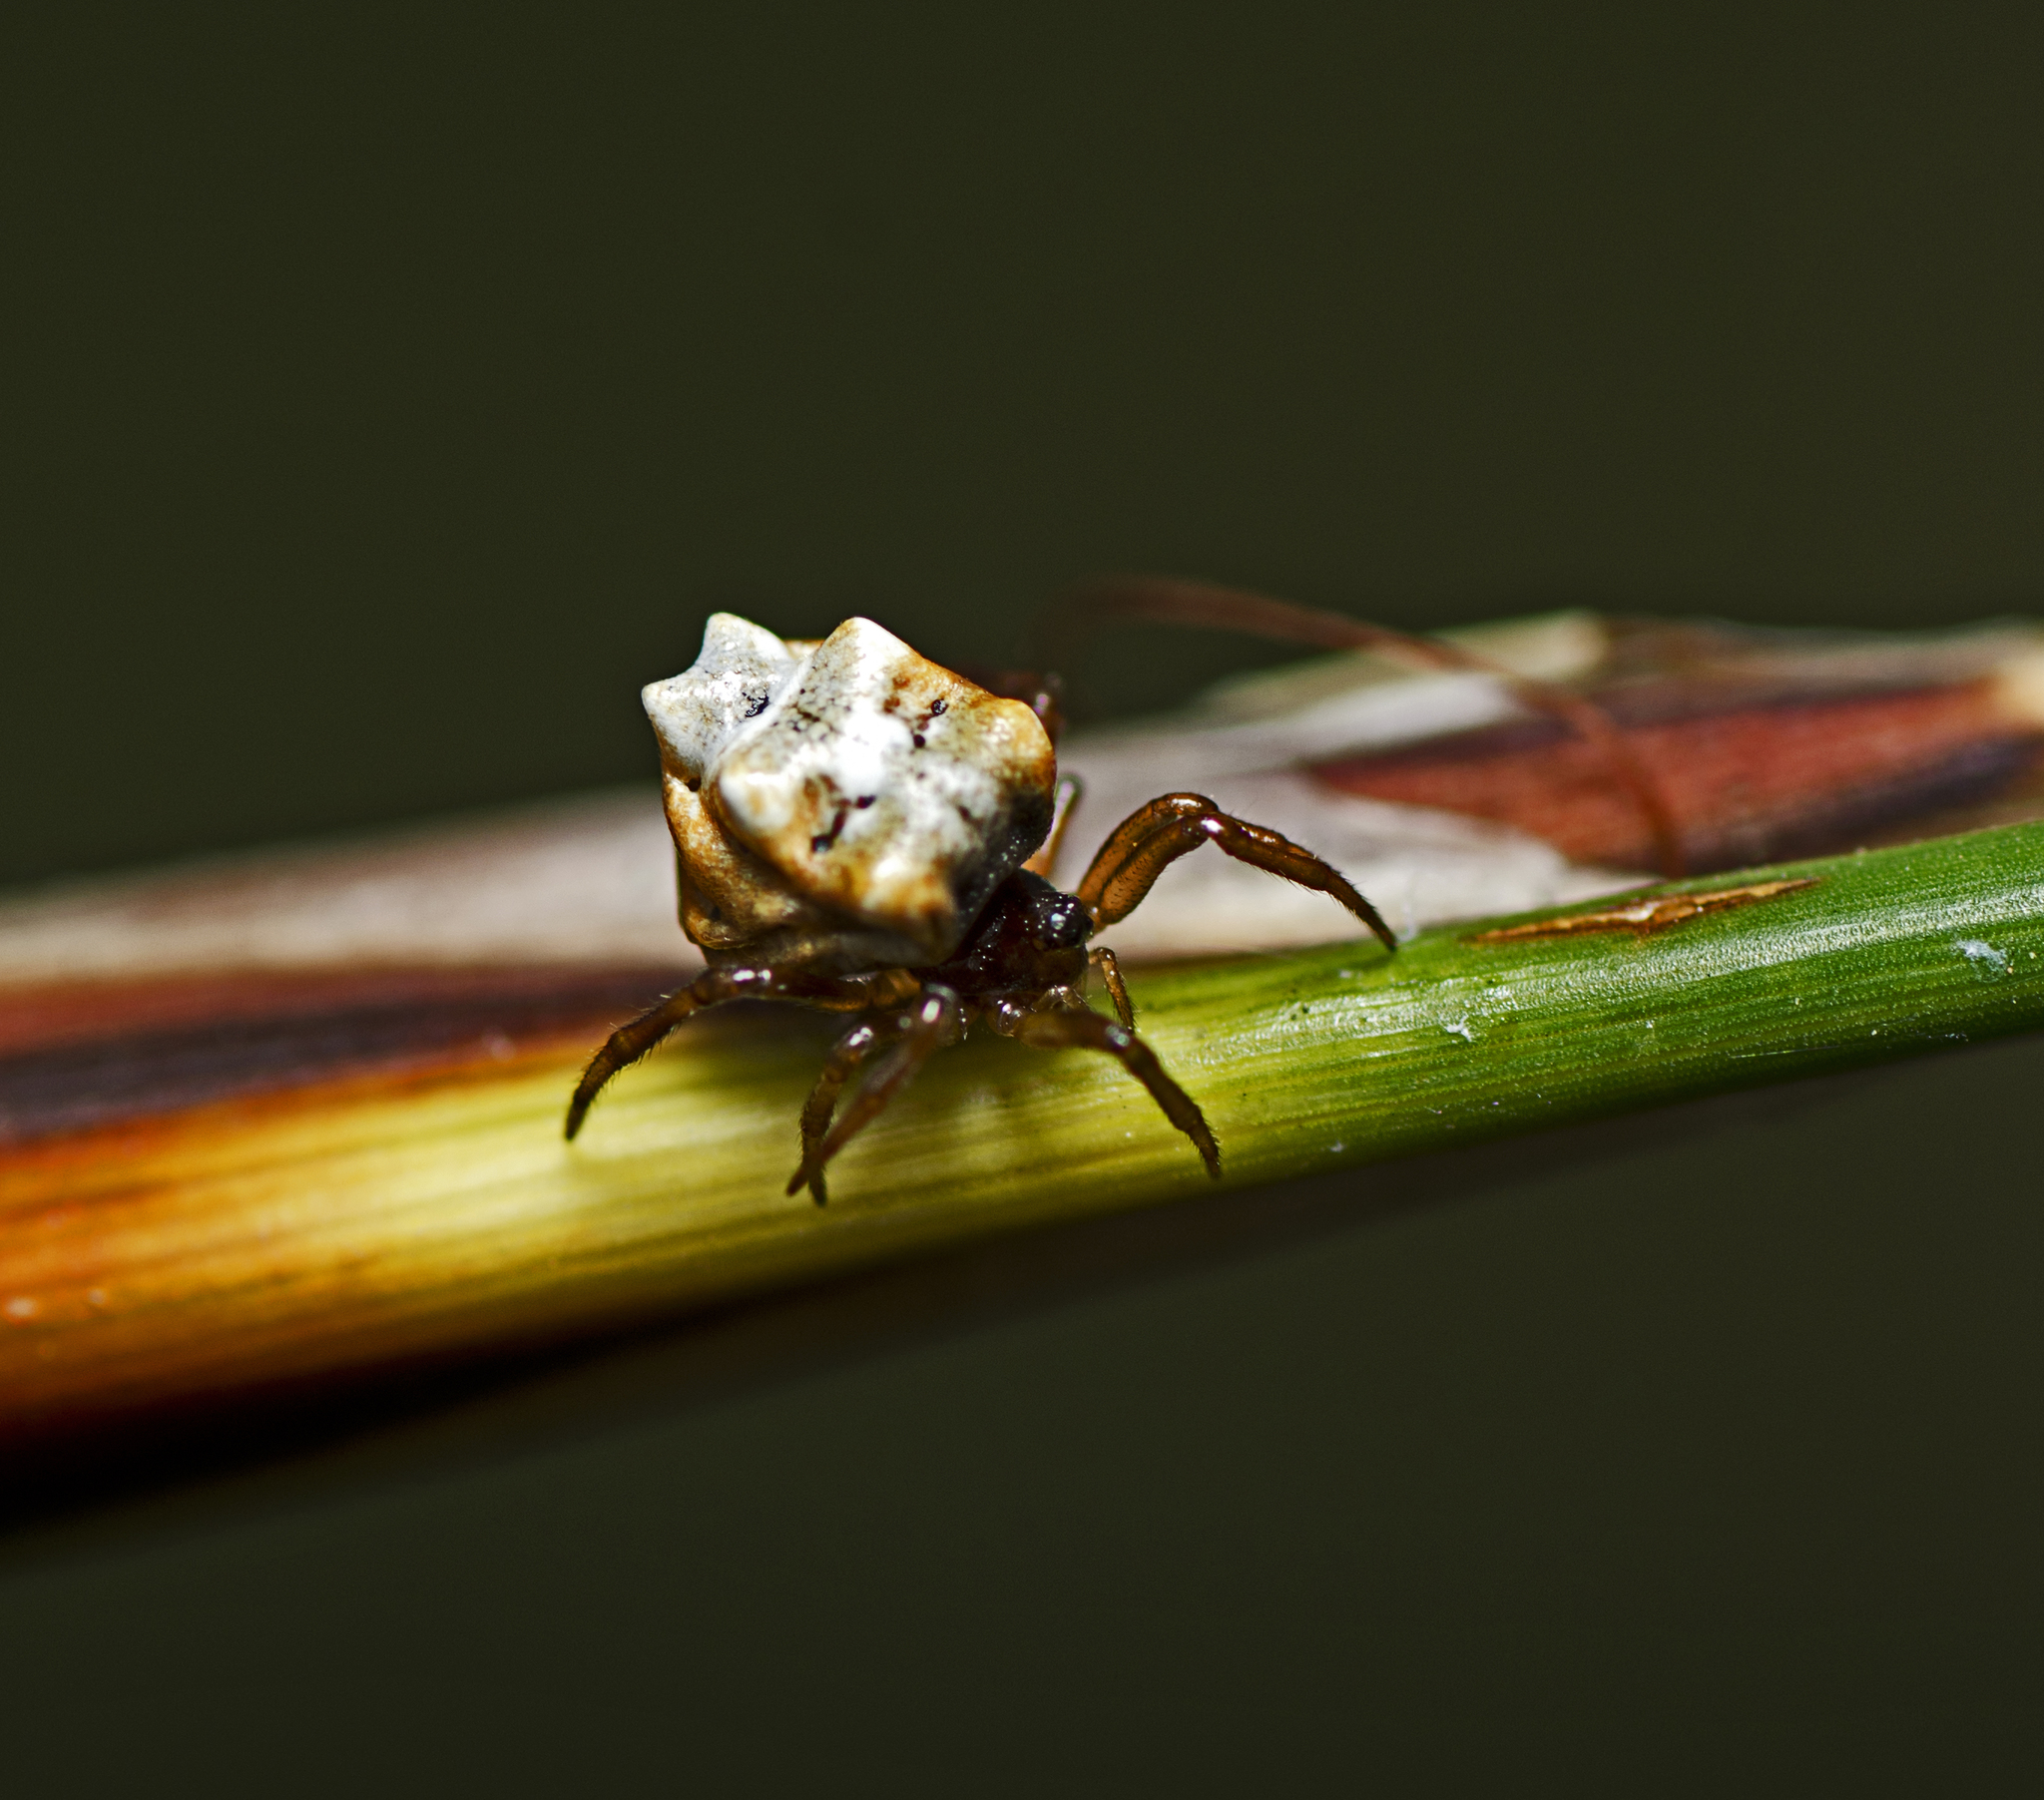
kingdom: Animalia
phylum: Arthropoda
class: Arachnida
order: Araneae
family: Theridiidae
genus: Phoroncidia
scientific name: Phoroncidia sextuberculata
